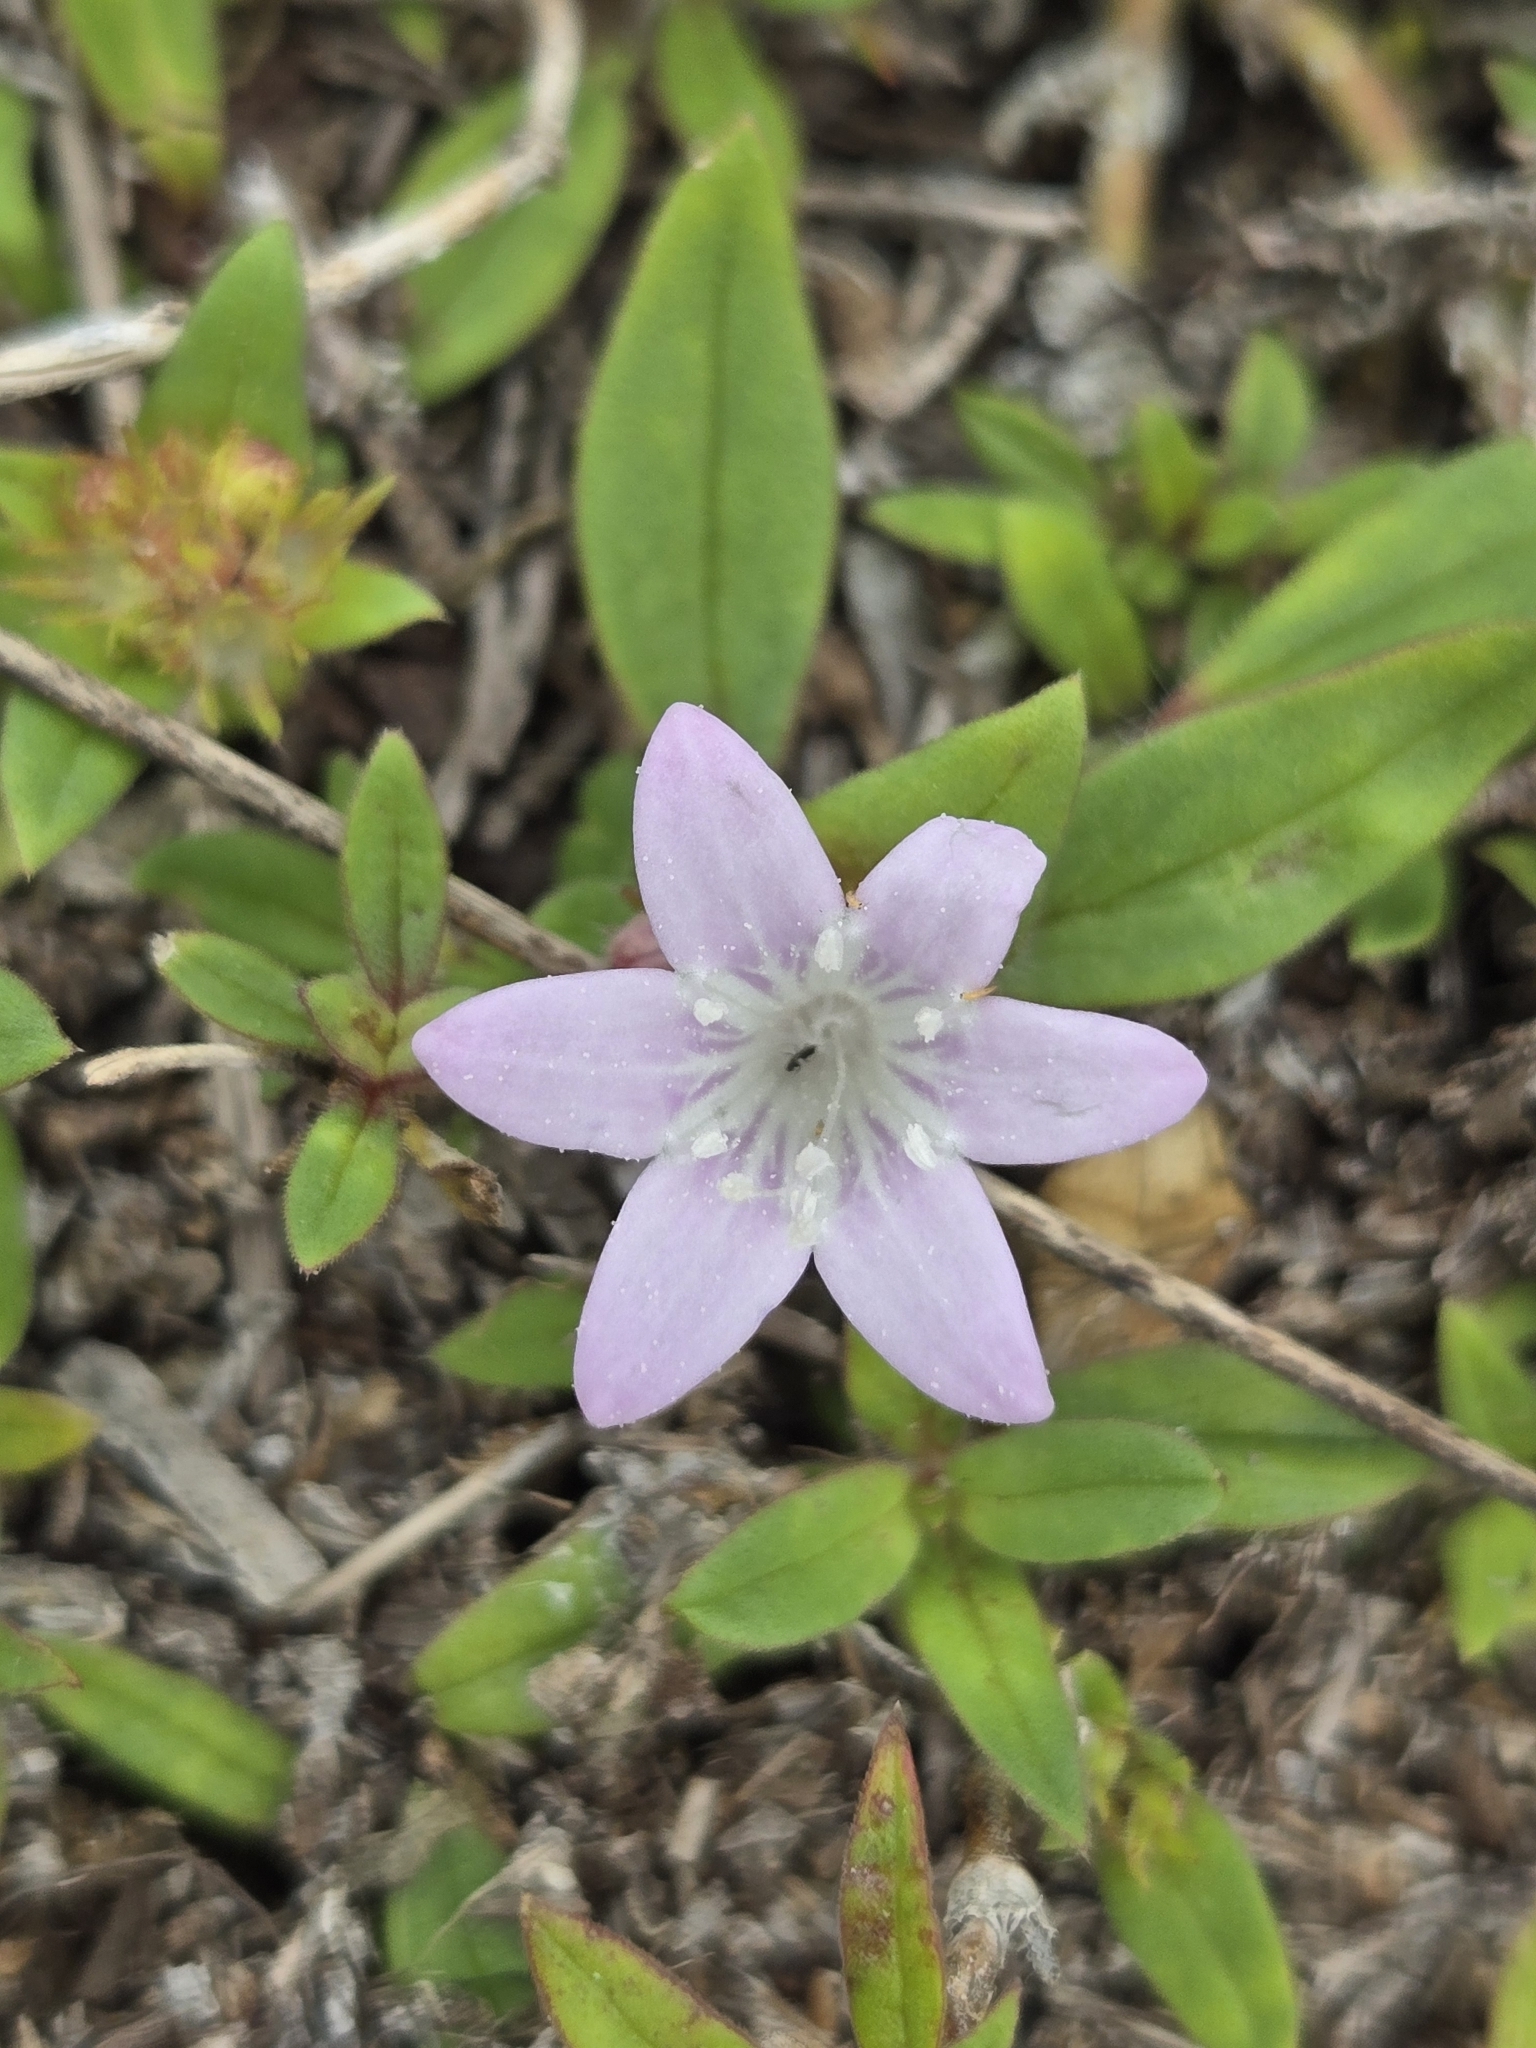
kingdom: Plantae
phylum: Tracheophyta
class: Magnoliopsida
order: Gentianales
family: Rubiaceae
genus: Richardia
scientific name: Richardia grandiflora
